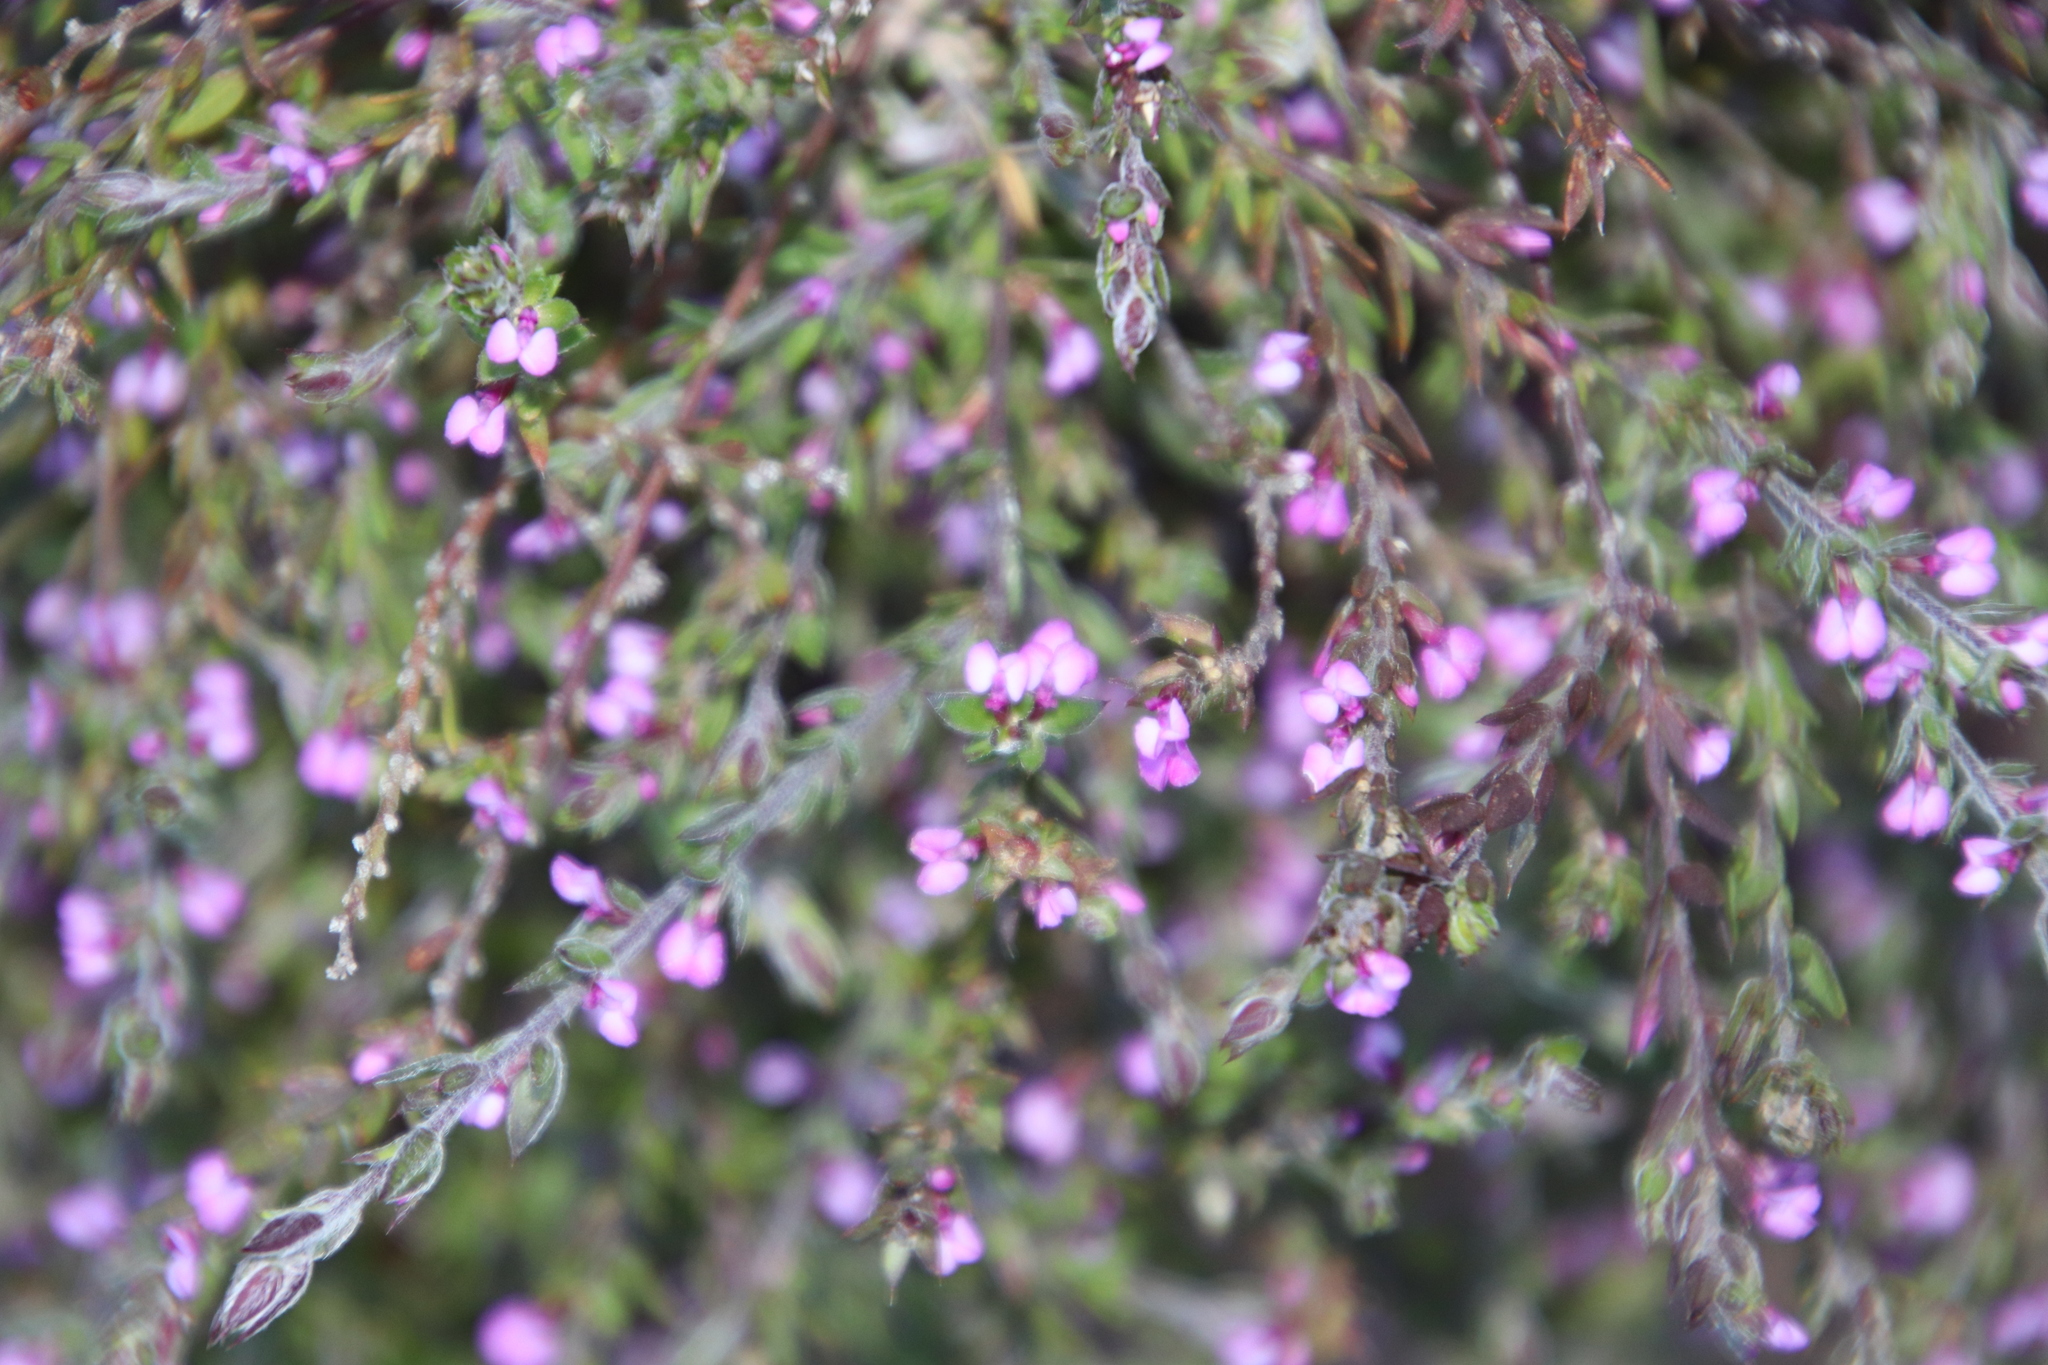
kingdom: Plantae
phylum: Tracheophyta
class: Magnoliopsida
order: Fabales
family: Polygalaceae
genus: Muraltia
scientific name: Muraltia stipulacea
